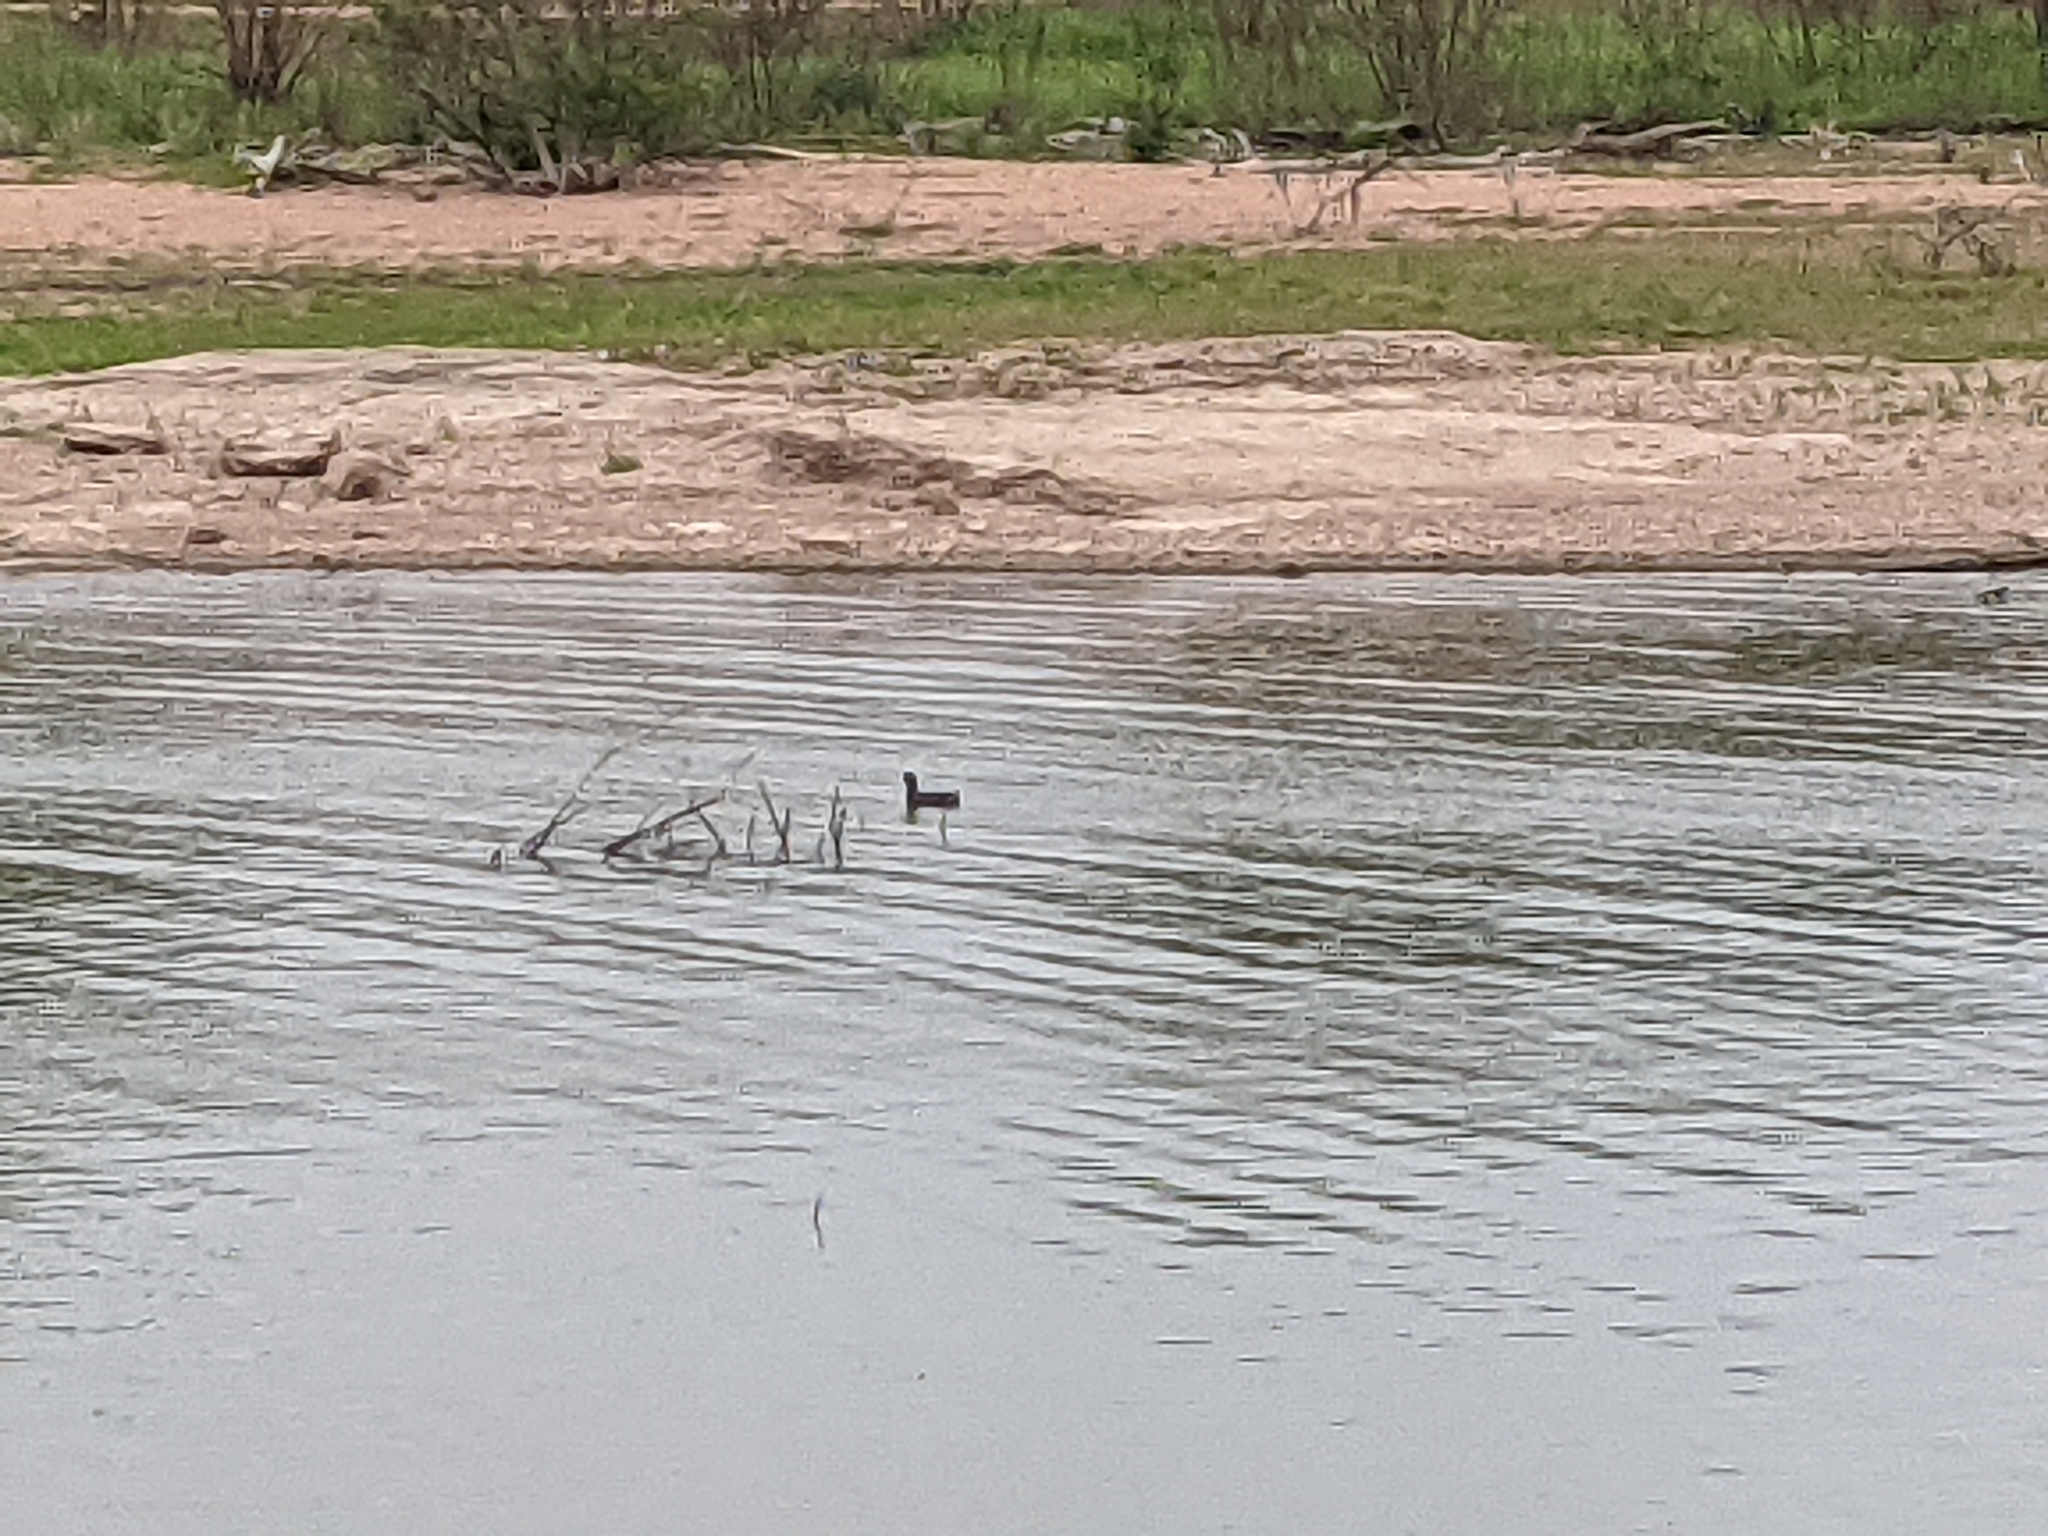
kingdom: Animalia
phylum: Chordata
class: Aves
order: Gruiformes
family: Rallidae
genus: Fulica
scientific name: Fulica americana
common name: American coot
